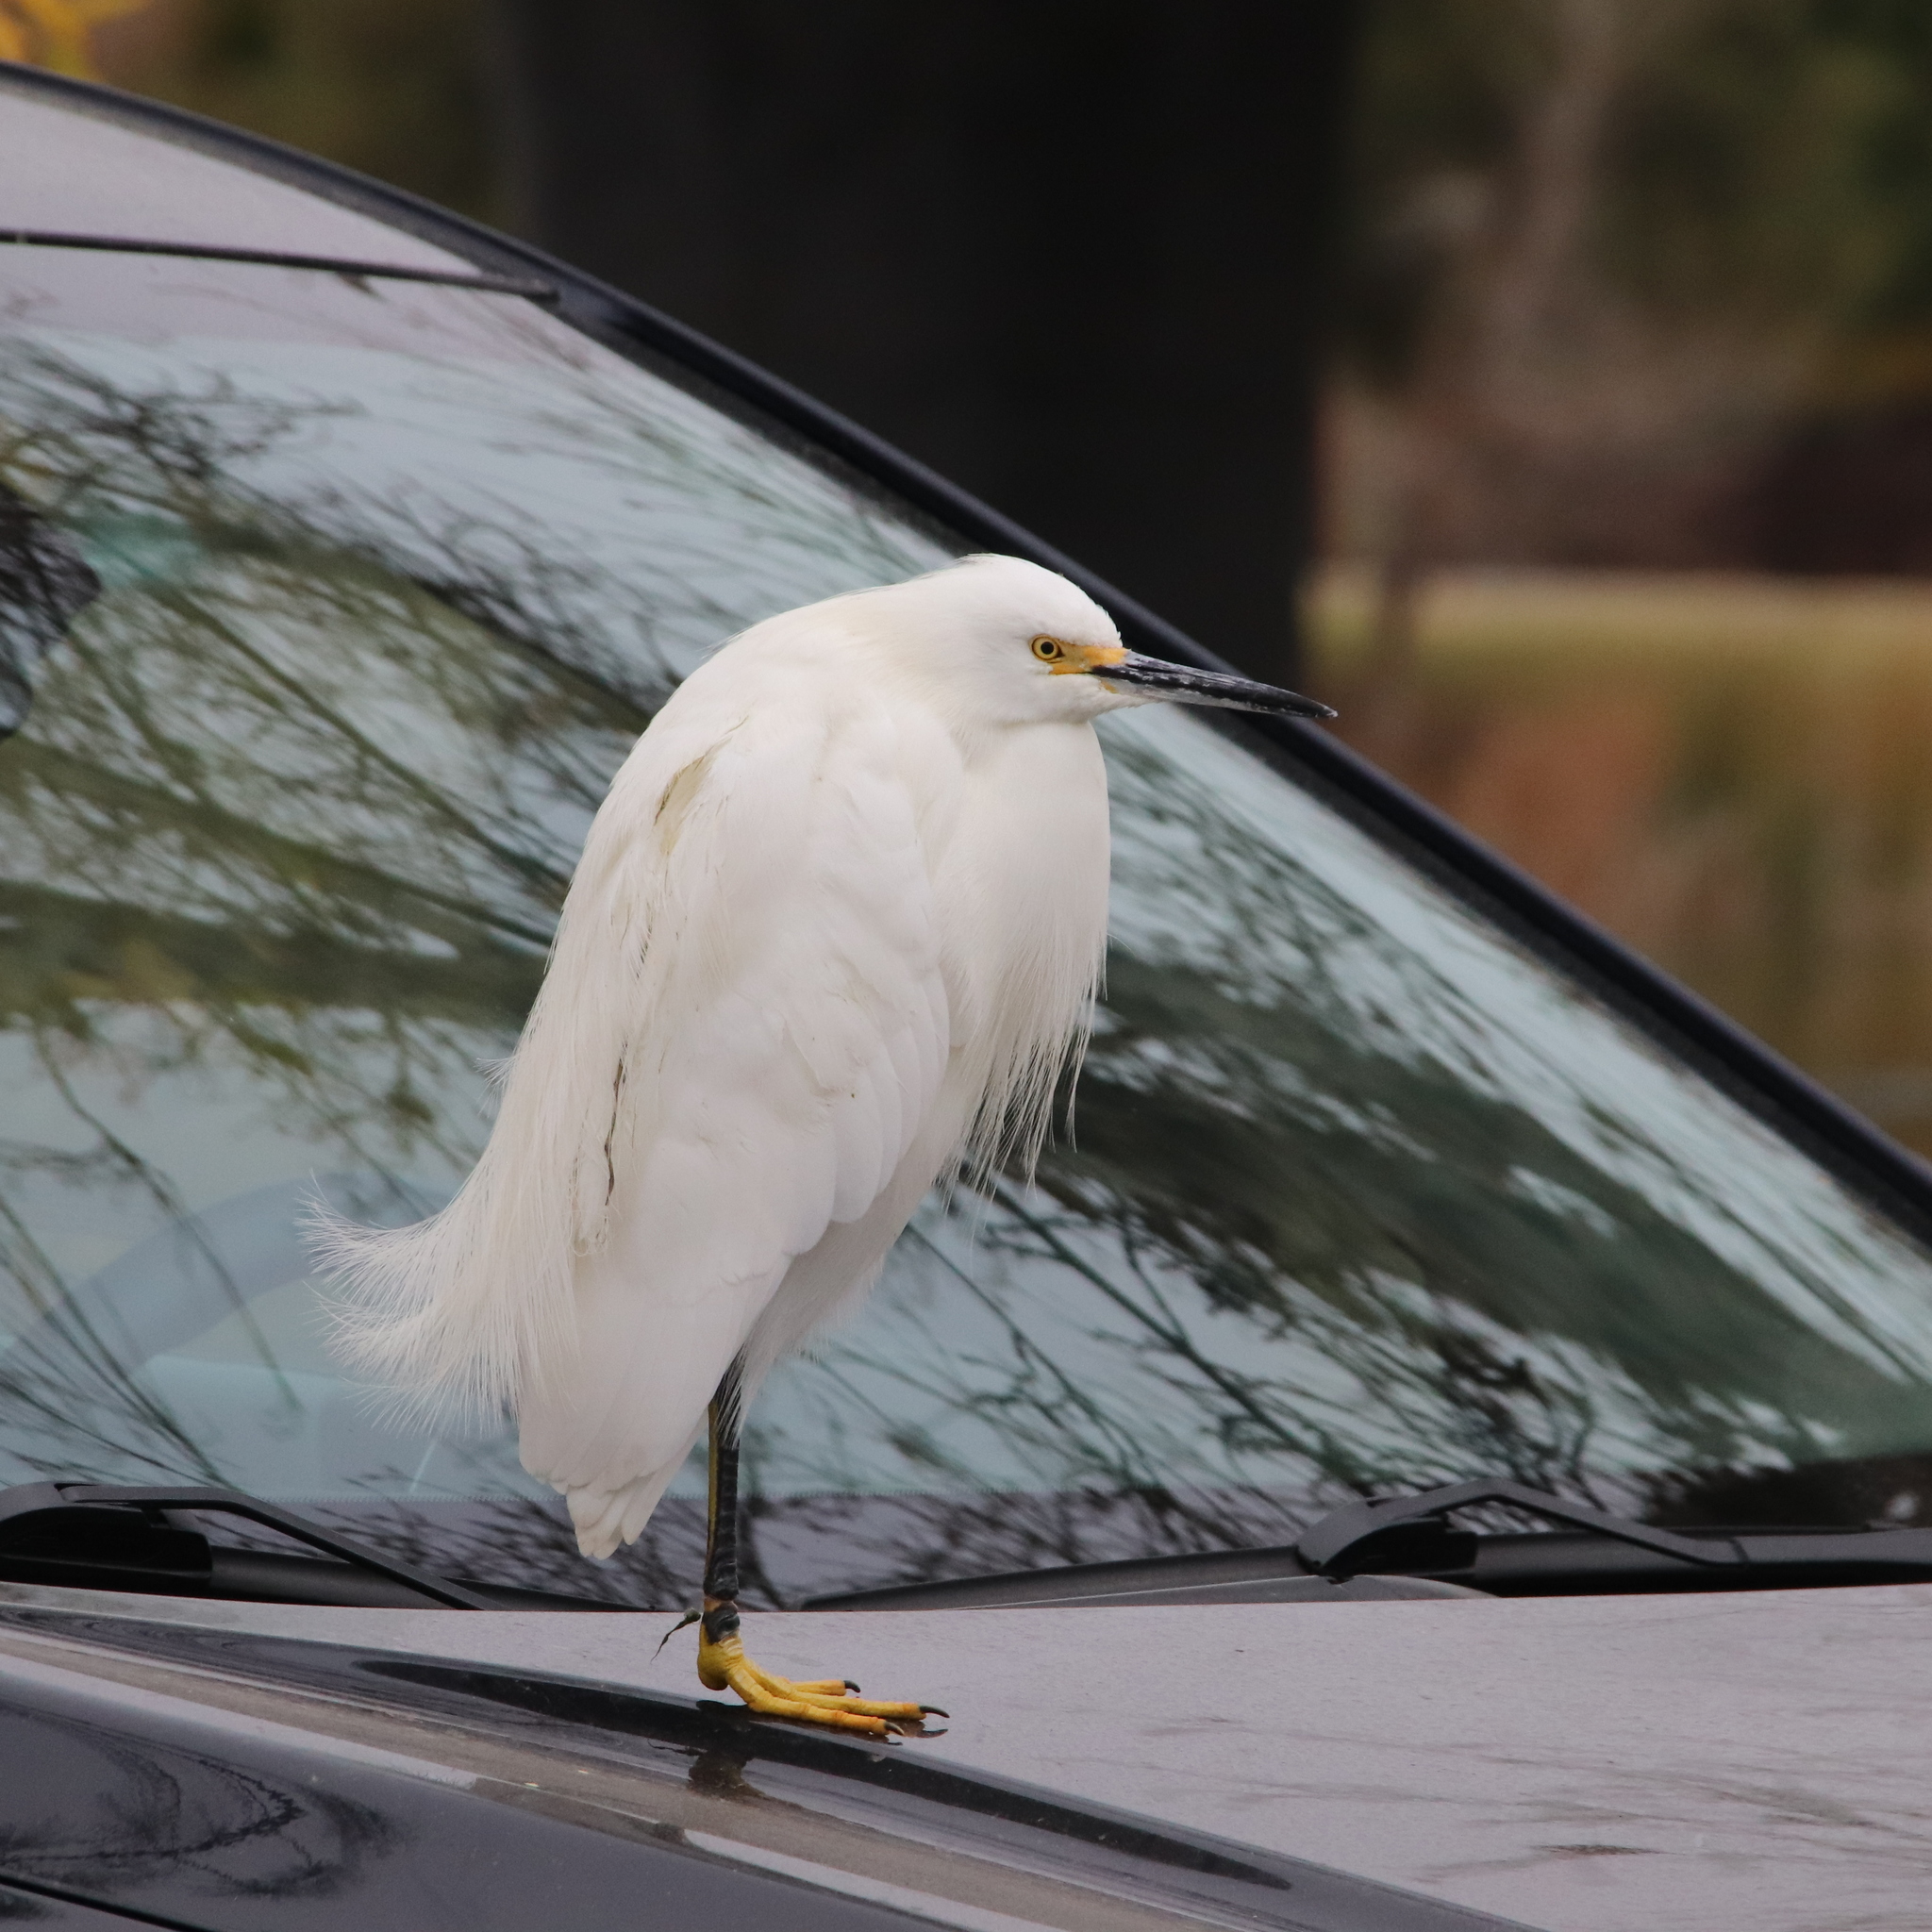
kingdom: Animalia
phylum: Chordata
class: Aves
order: Pelecaniformes
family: Ardeidae
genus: Egretta
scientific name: Egretta thula
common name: Snowy egret
